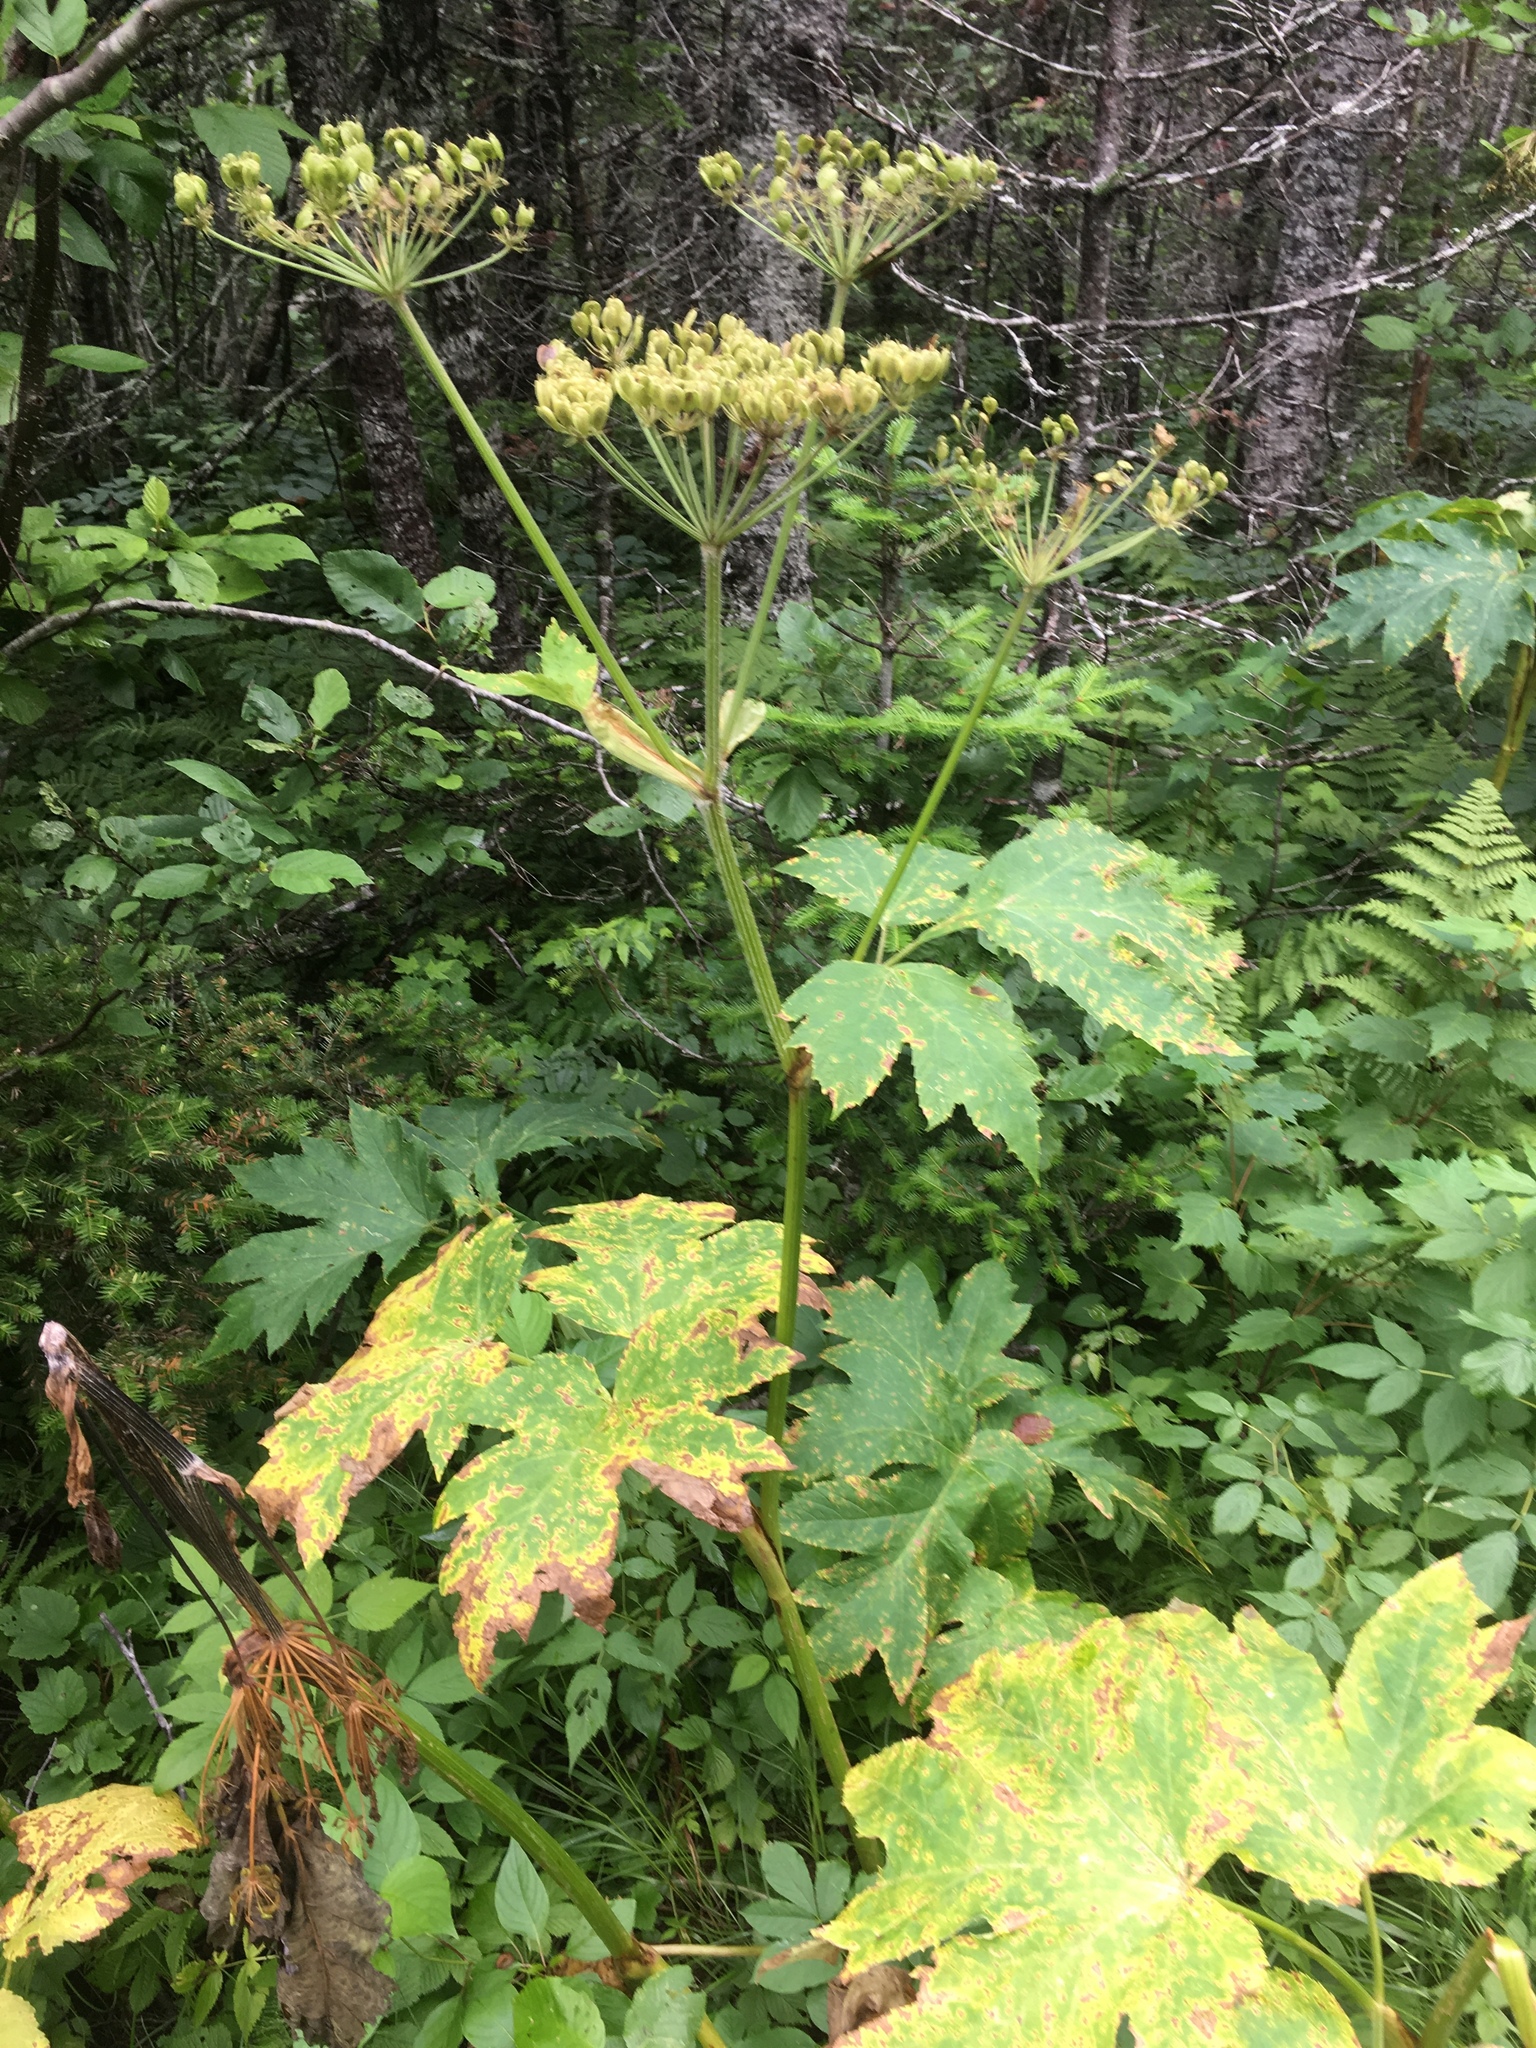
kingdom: Plantae
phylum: Tracheophyta
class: Magnoliopsida
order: Apiales
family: Apiaceae
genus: Heracleum
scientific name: Heracleum maximum
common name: American cow parsnip
